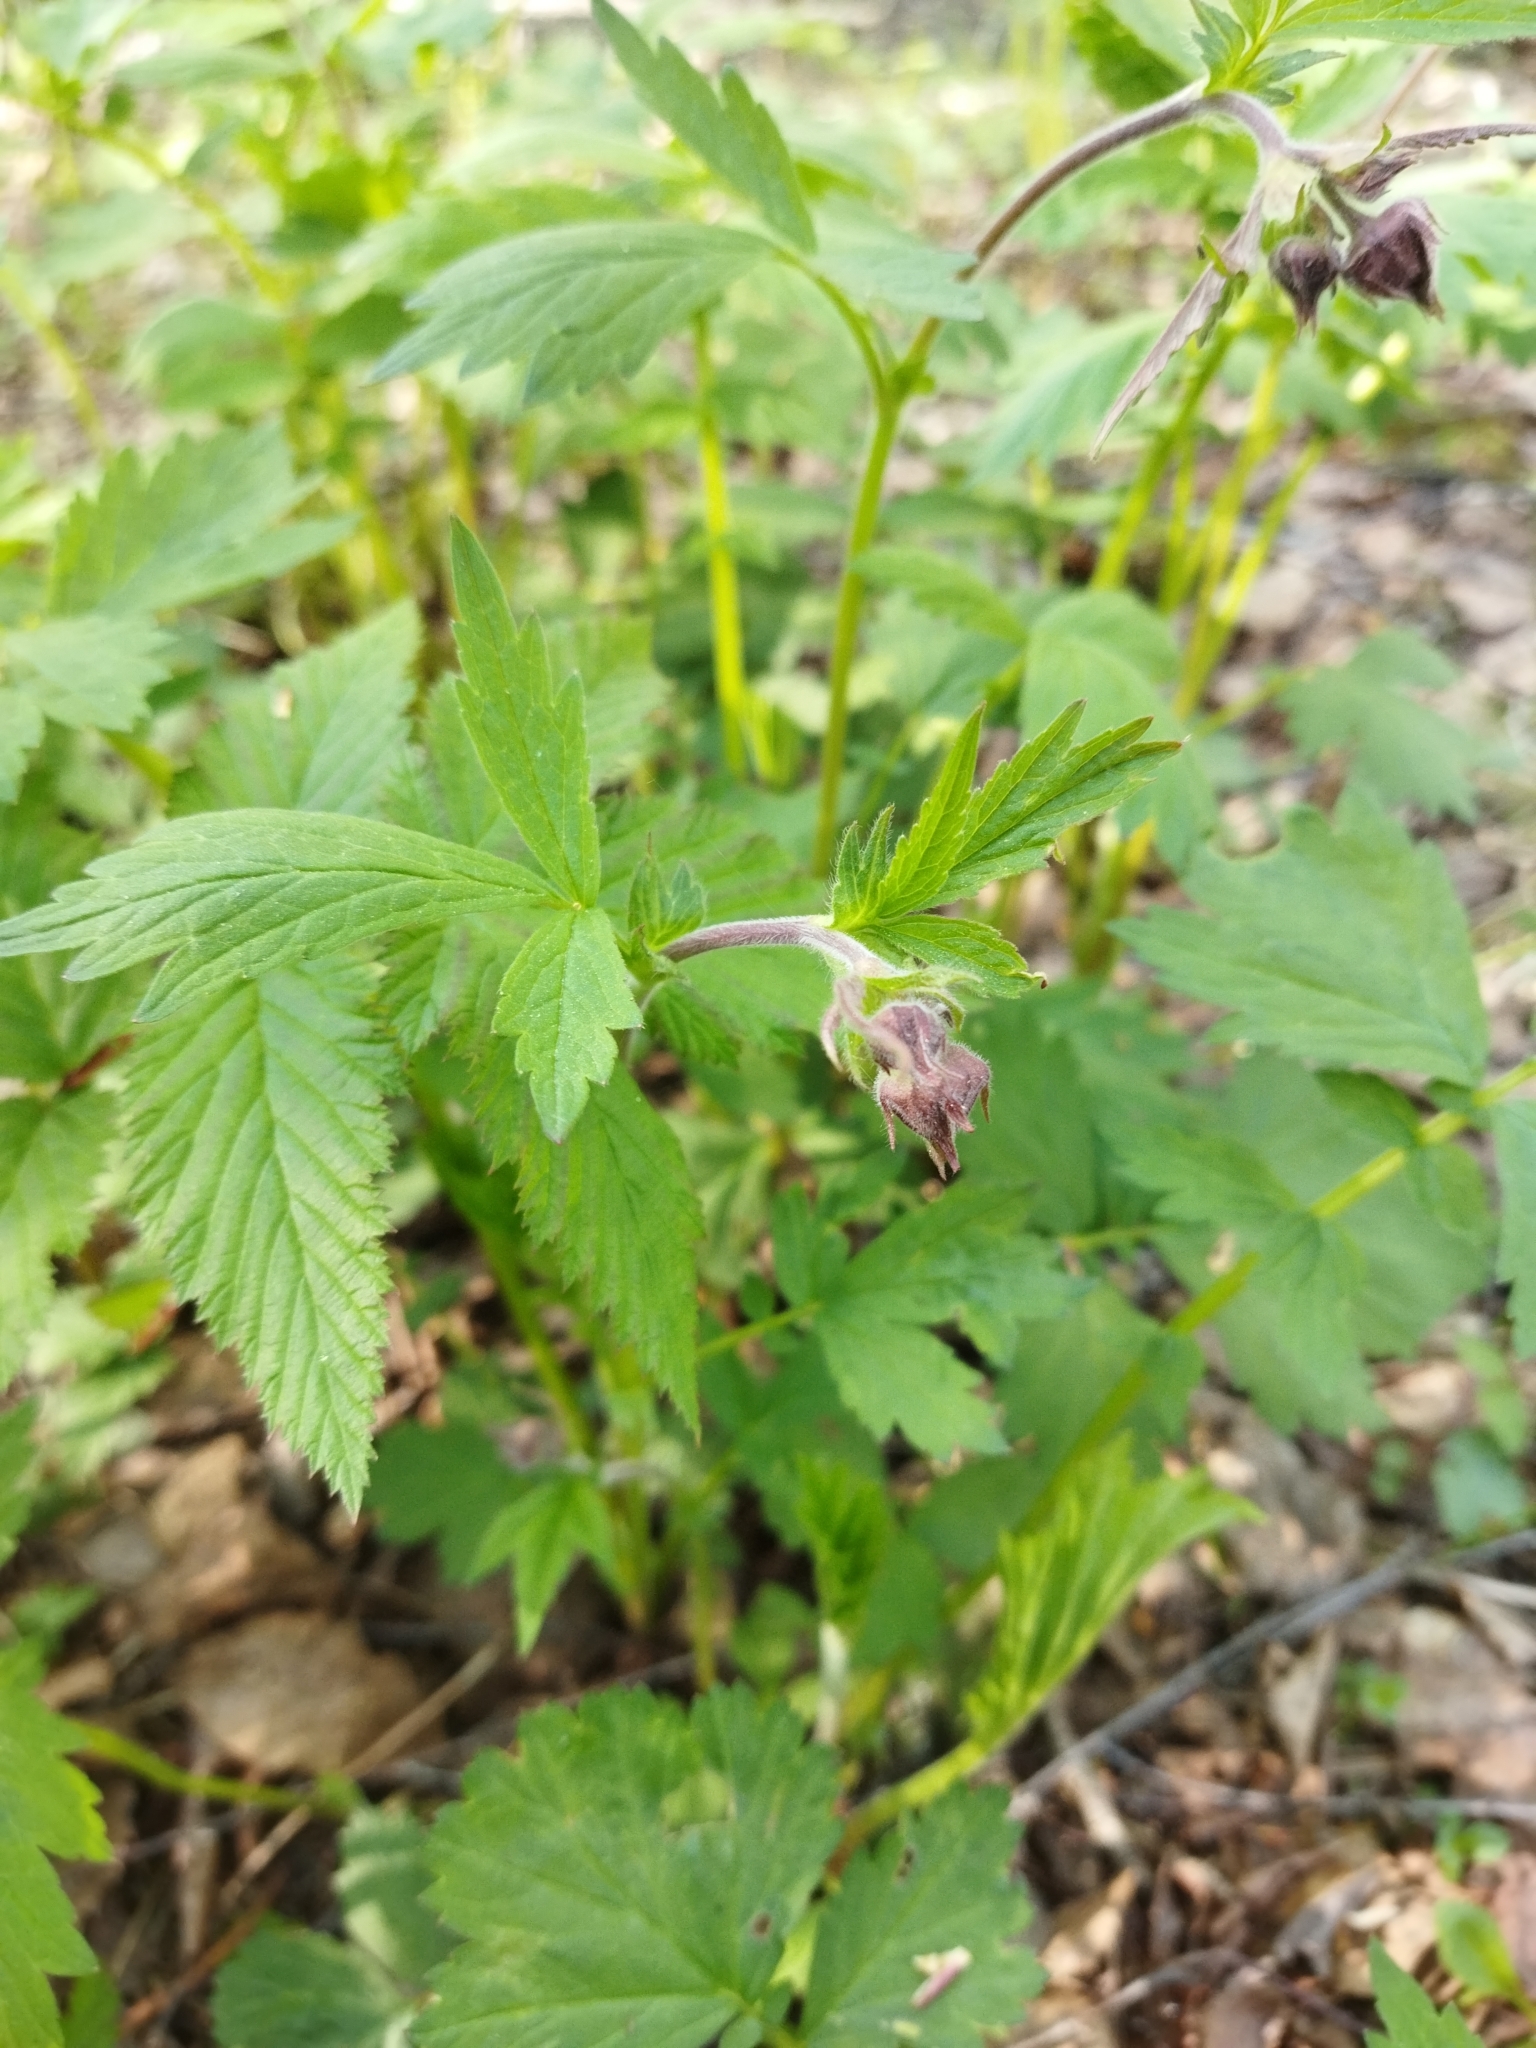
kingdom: Plantae
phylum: Tracheophyta
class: Magnoliopsida
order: Rosales
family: Rosaceae
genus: Geum
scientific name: Geum rivale
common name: Water avens
